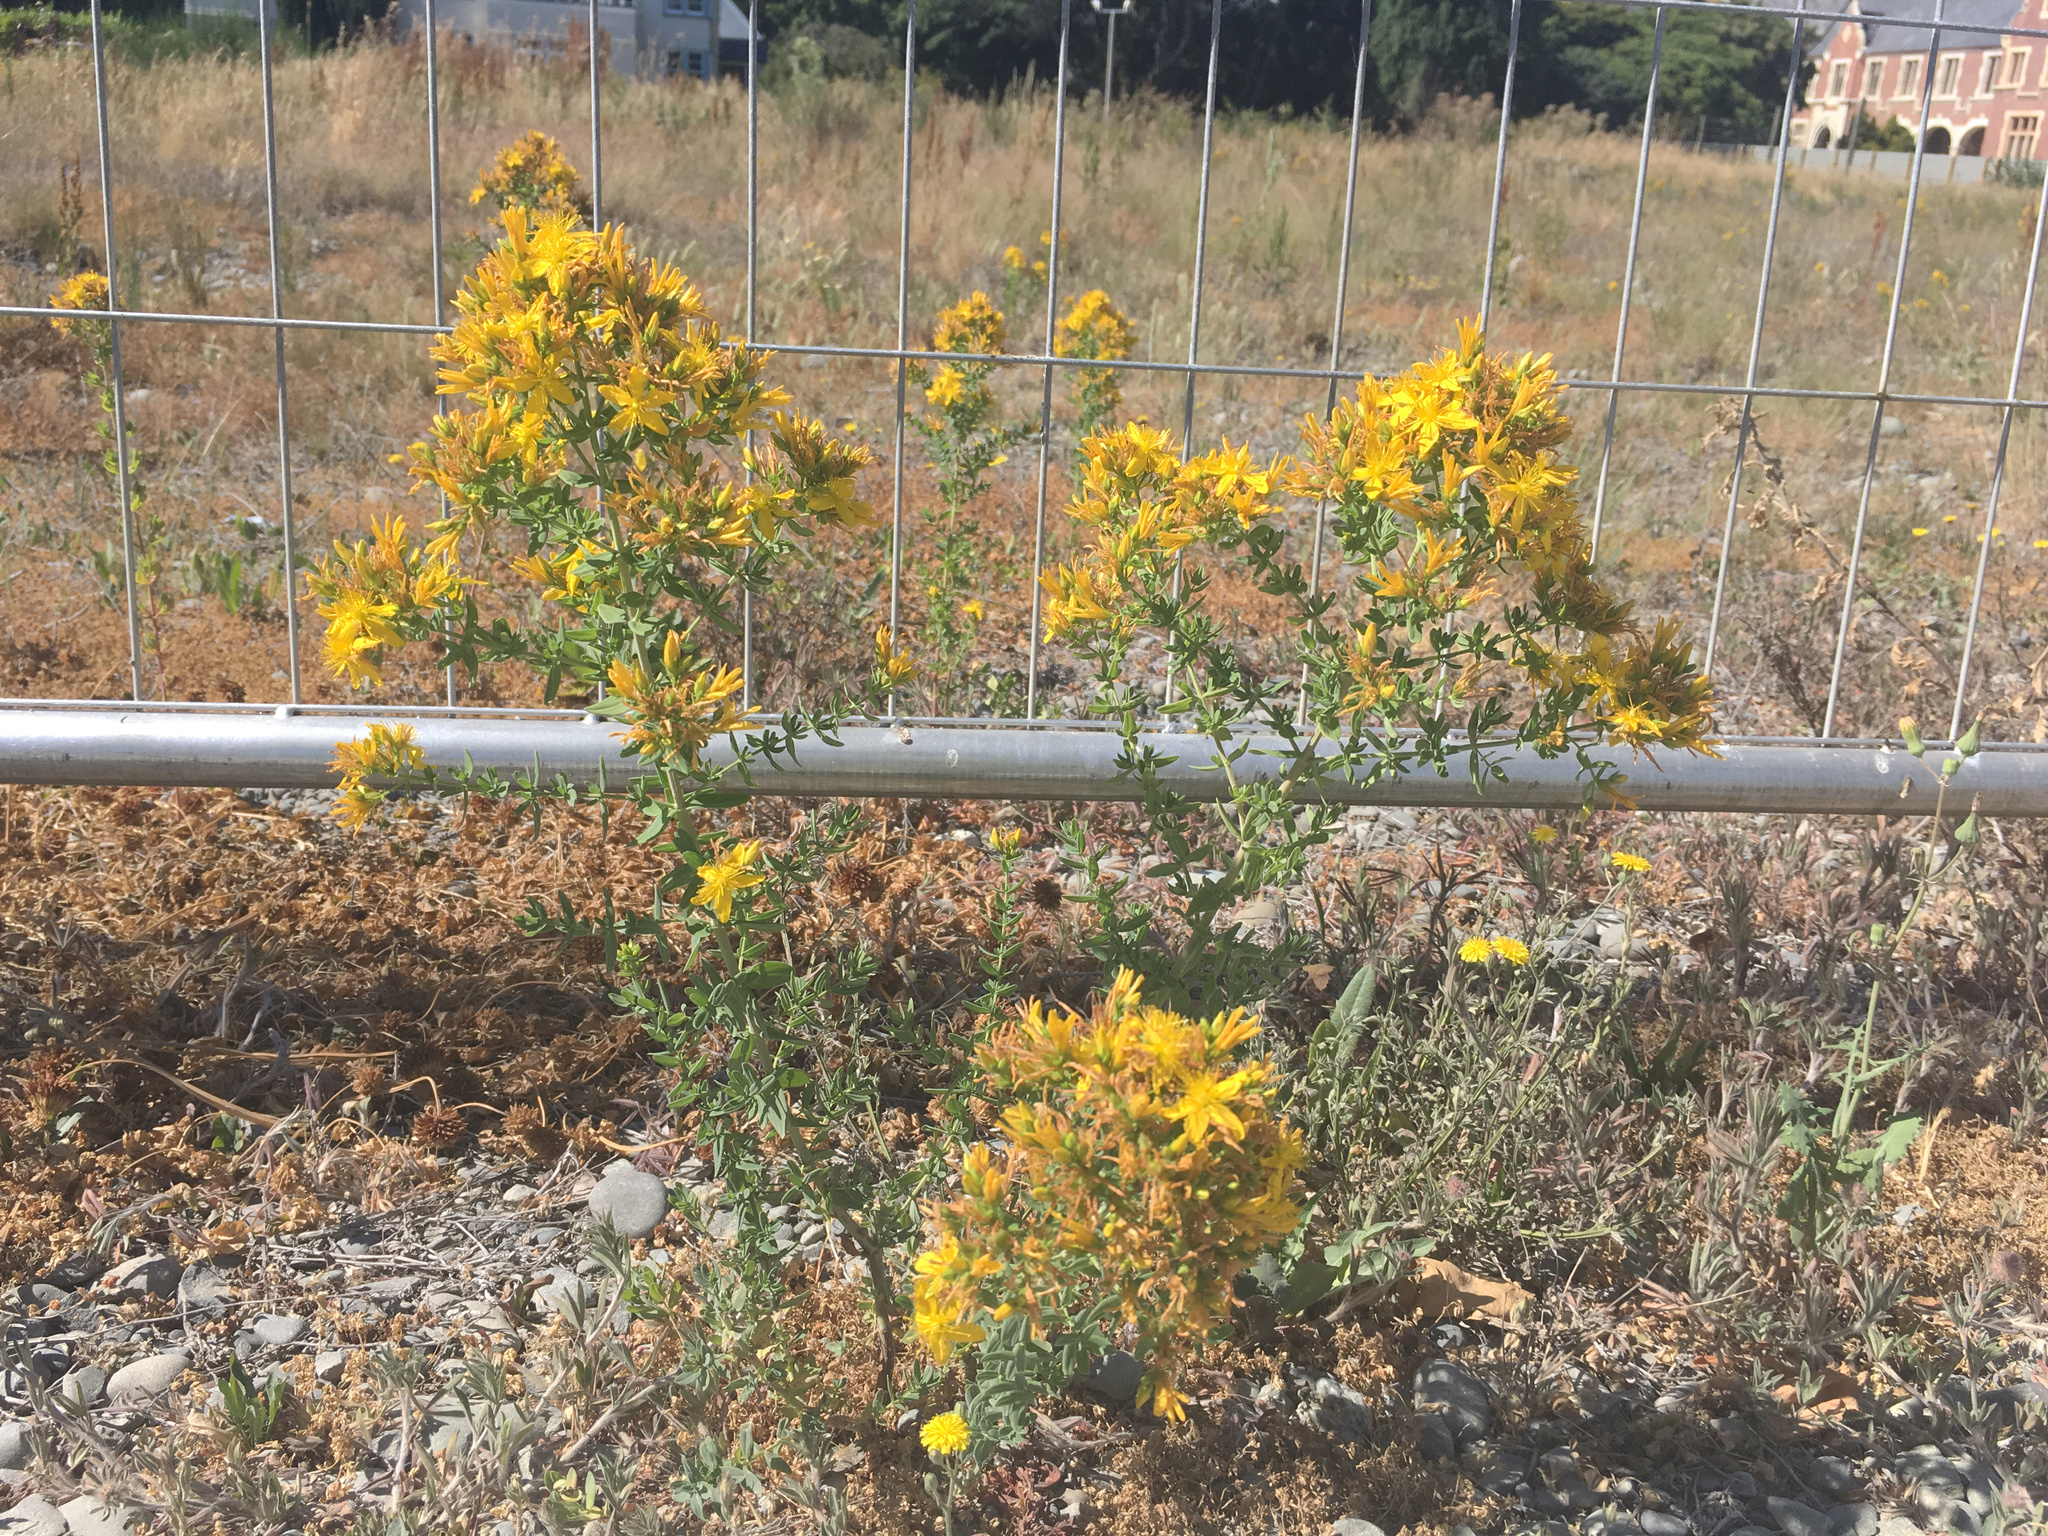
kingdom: Plantae
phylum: Tracheophyta
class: Magnoliopsida
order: Malpighiales
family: Hypericaceae
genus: Hypericum
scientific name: Hypericum perforatum
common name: Common st. johnswort
